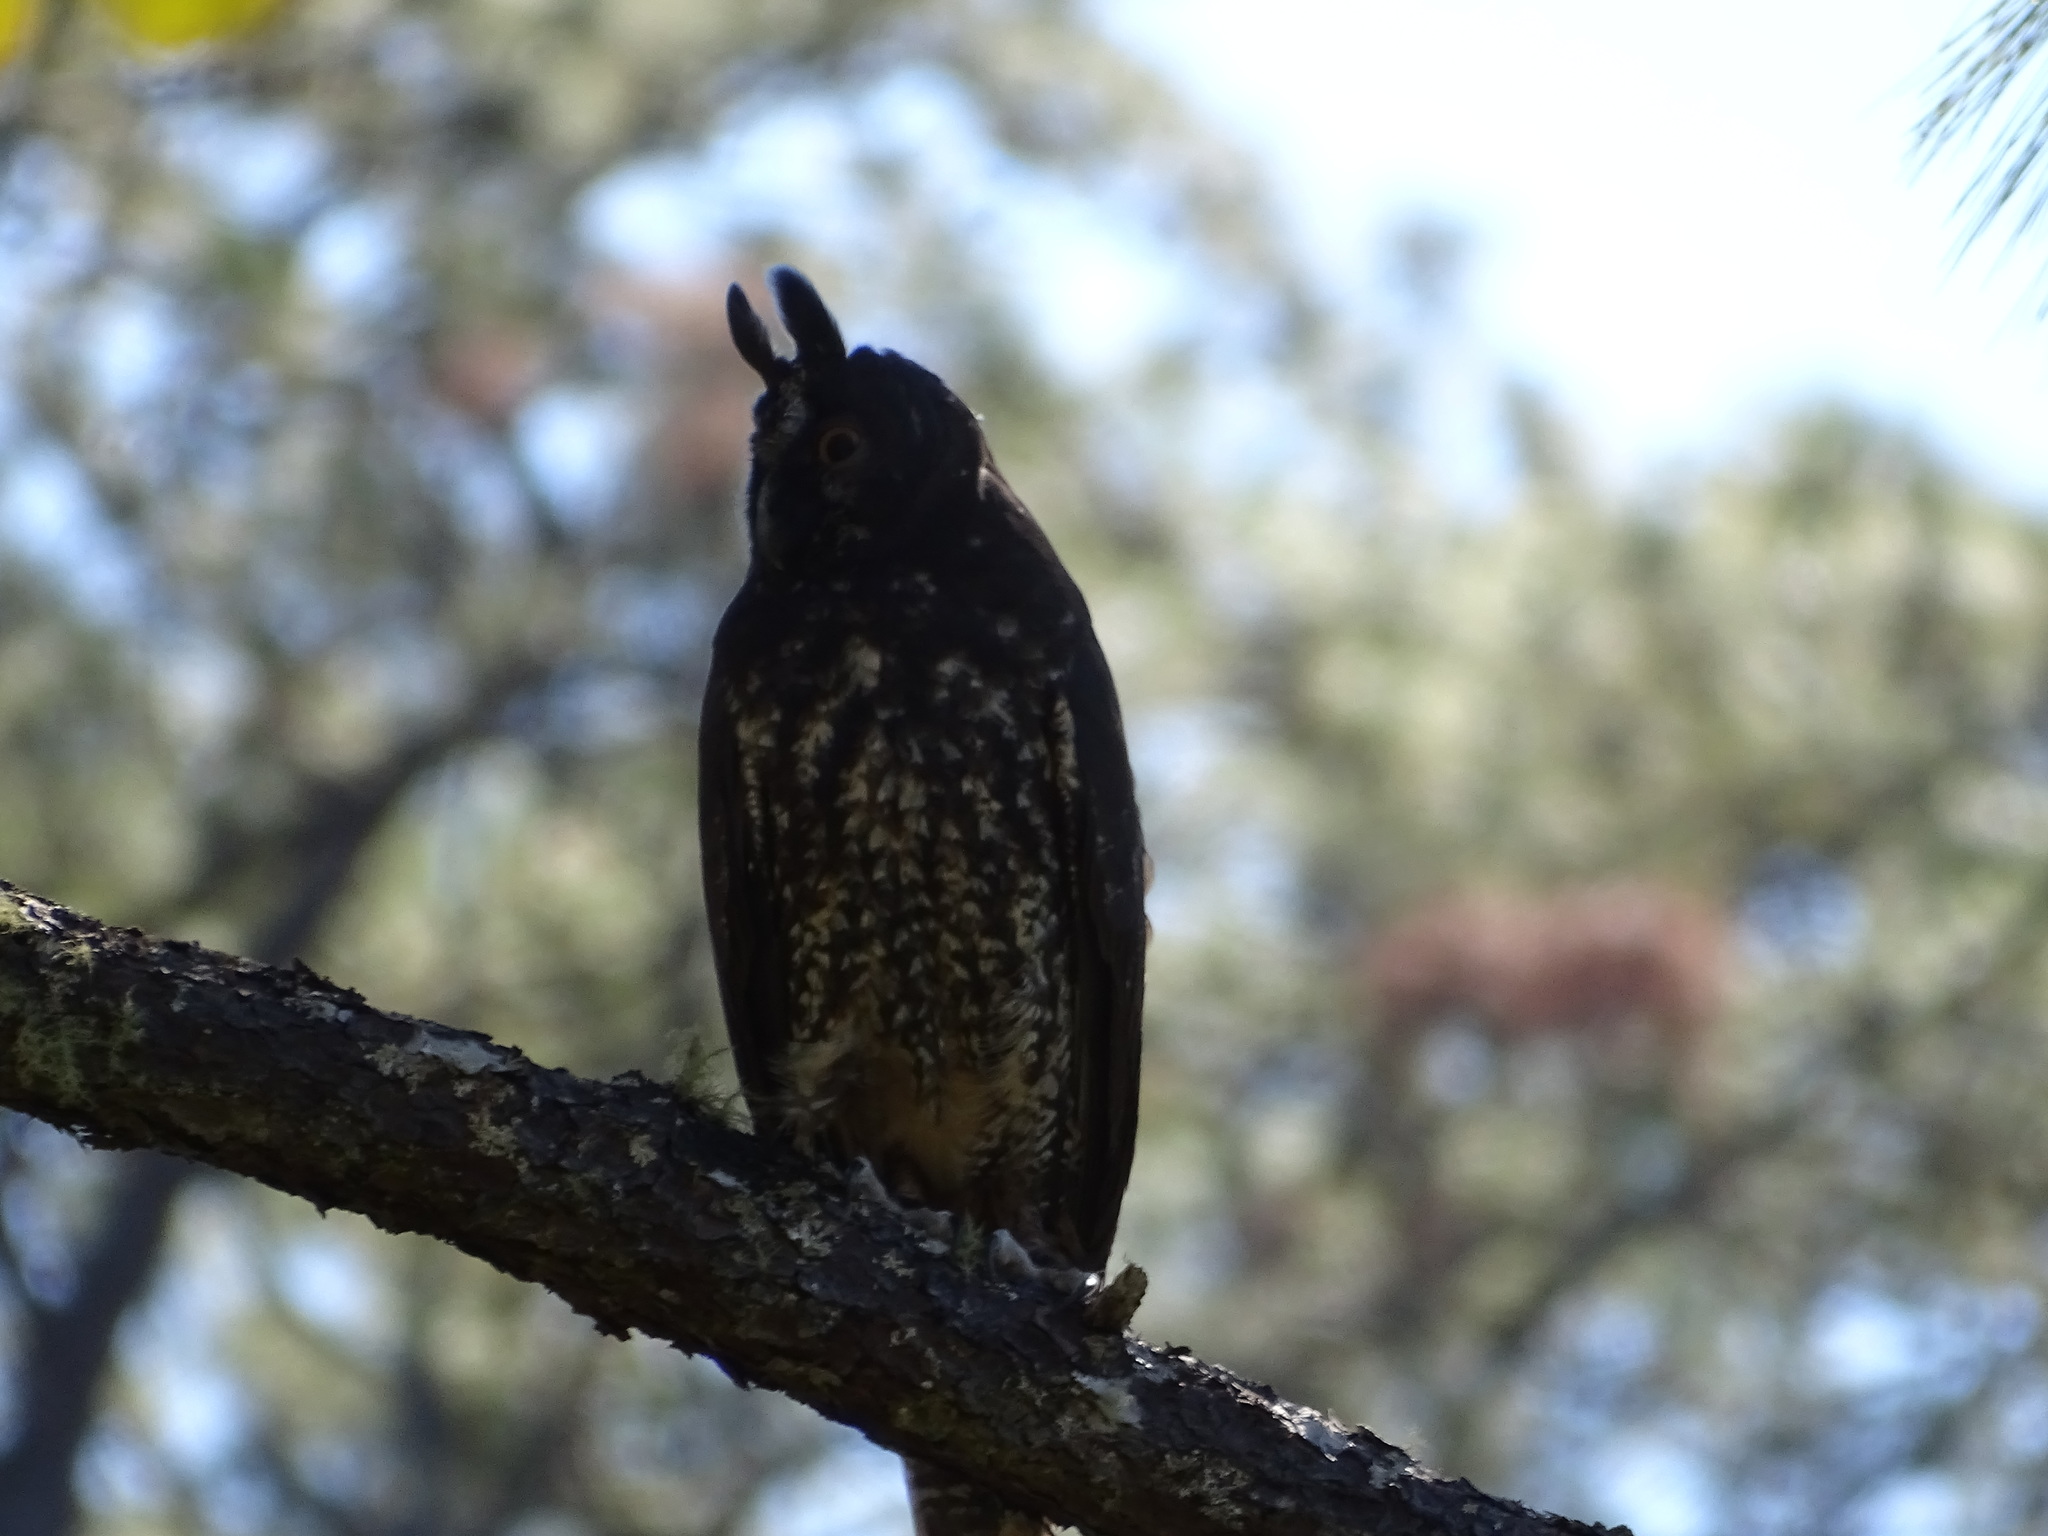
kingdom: Animalia
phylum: Chordata
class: Aves
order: Strigiformes
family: Strigidae
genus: Asio
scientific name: Asio stygius
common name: Stygian owl
